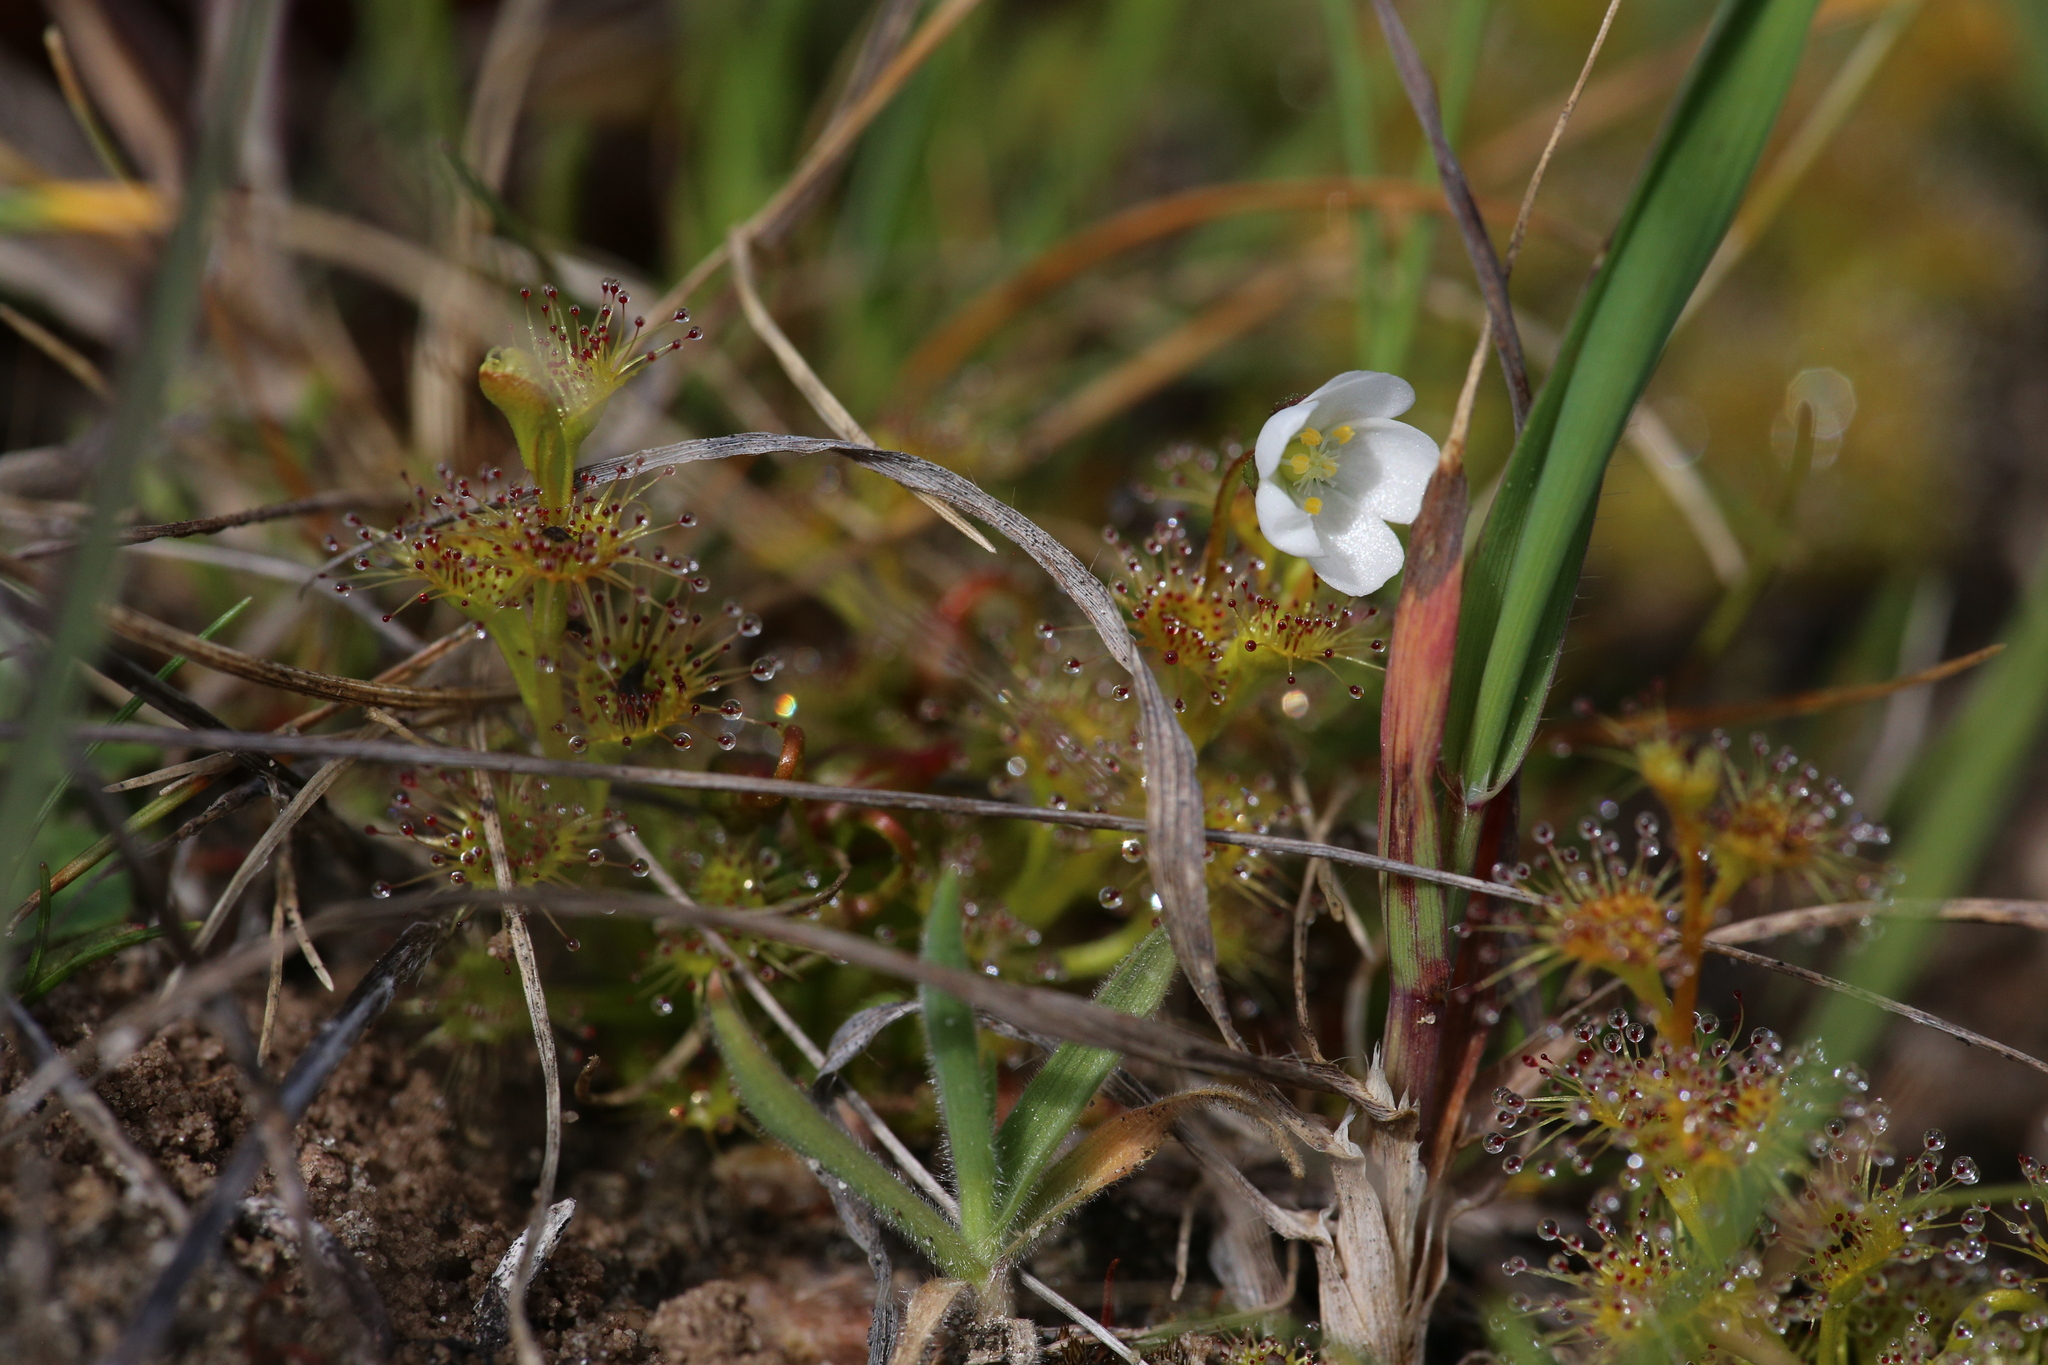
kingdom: Plantae
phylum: Tracheophyta
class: Magnoliopsida
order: Caryophyllales
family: Droseraceae
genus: Drosera
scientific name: Drosera ramellosa
